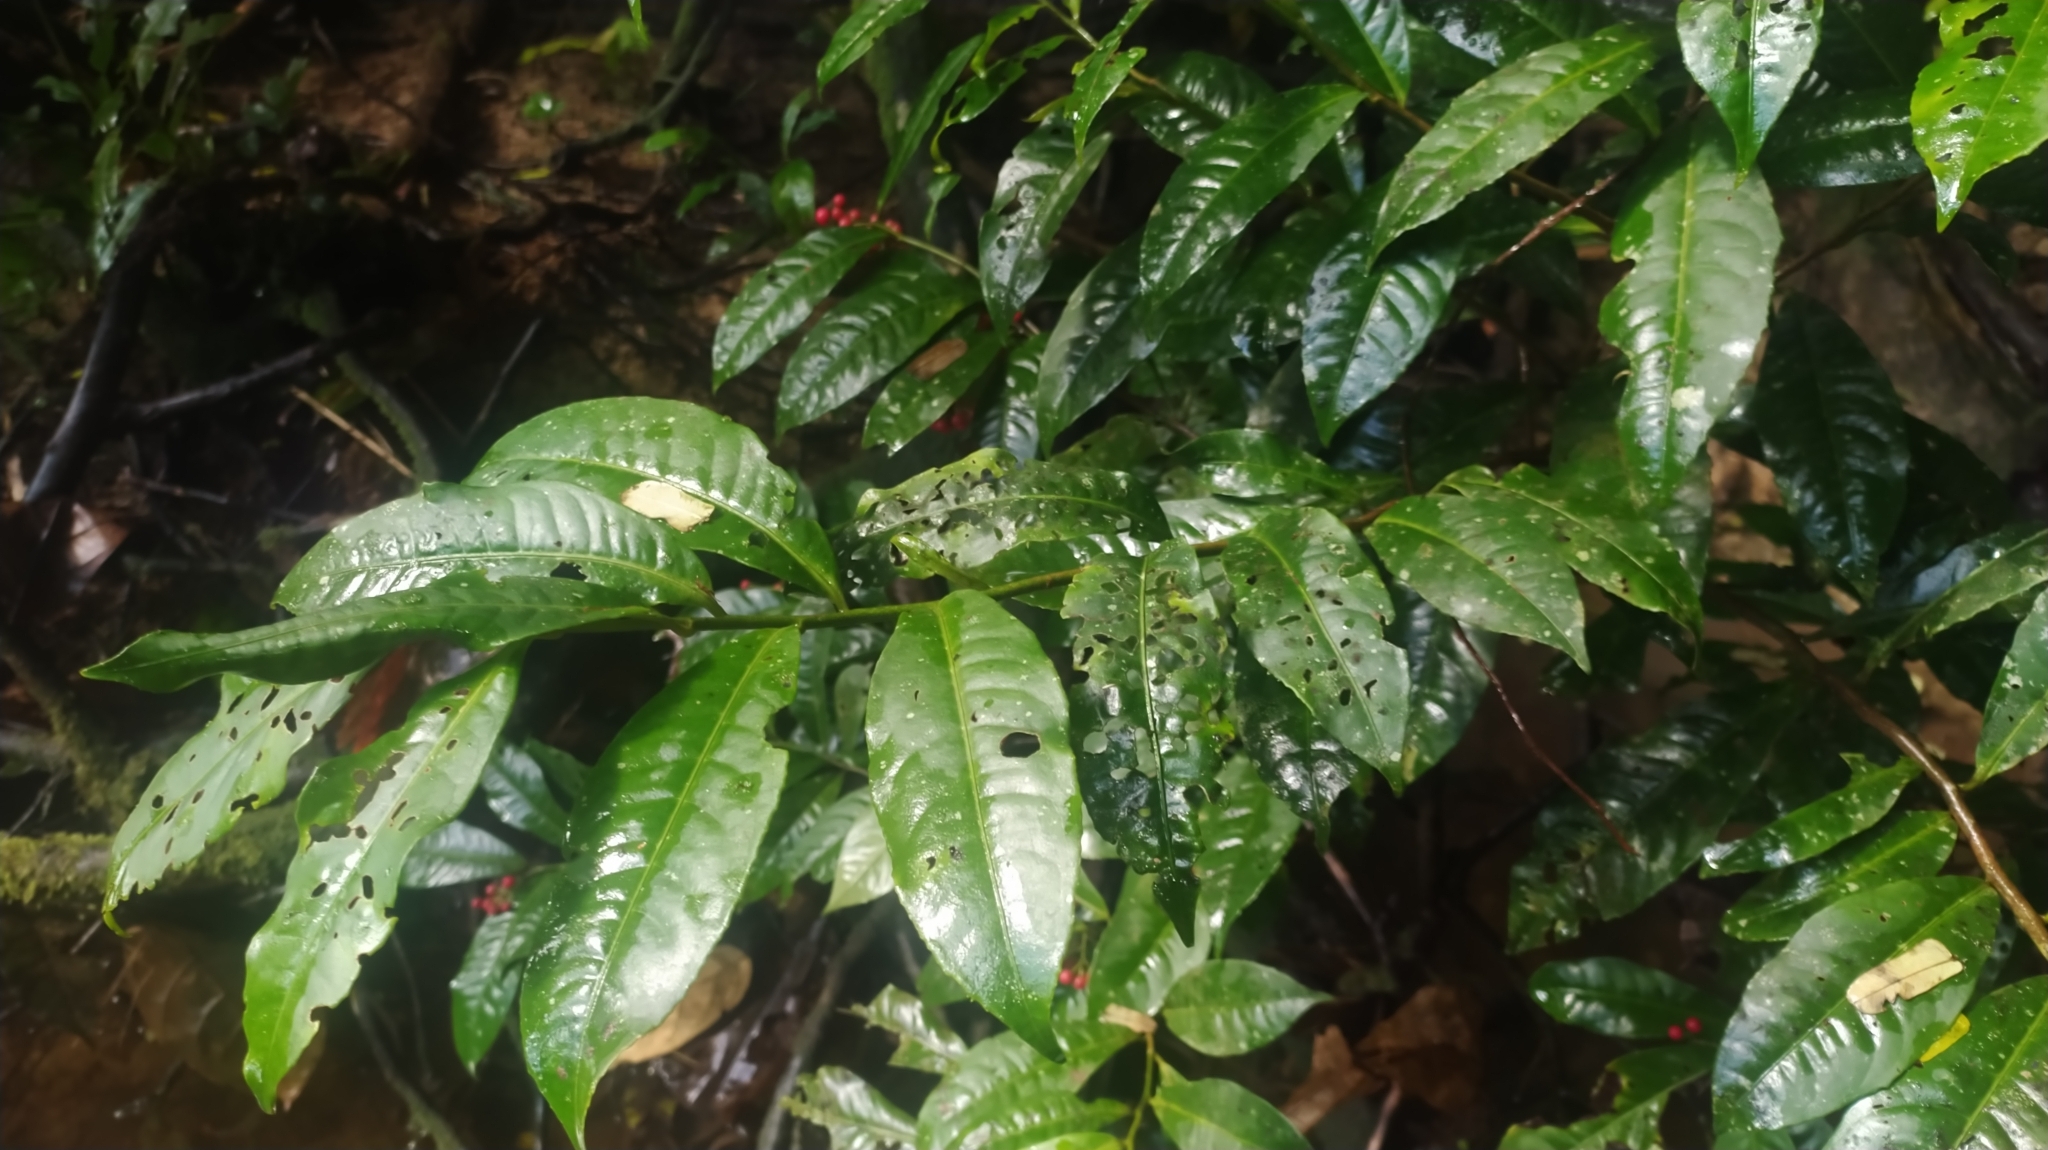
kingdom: Plantae
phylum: Tracheophyta
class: Magnoliopsida
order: Ericales
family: Primulaceae
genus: Ardisia
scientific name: Ardisia guianensis
